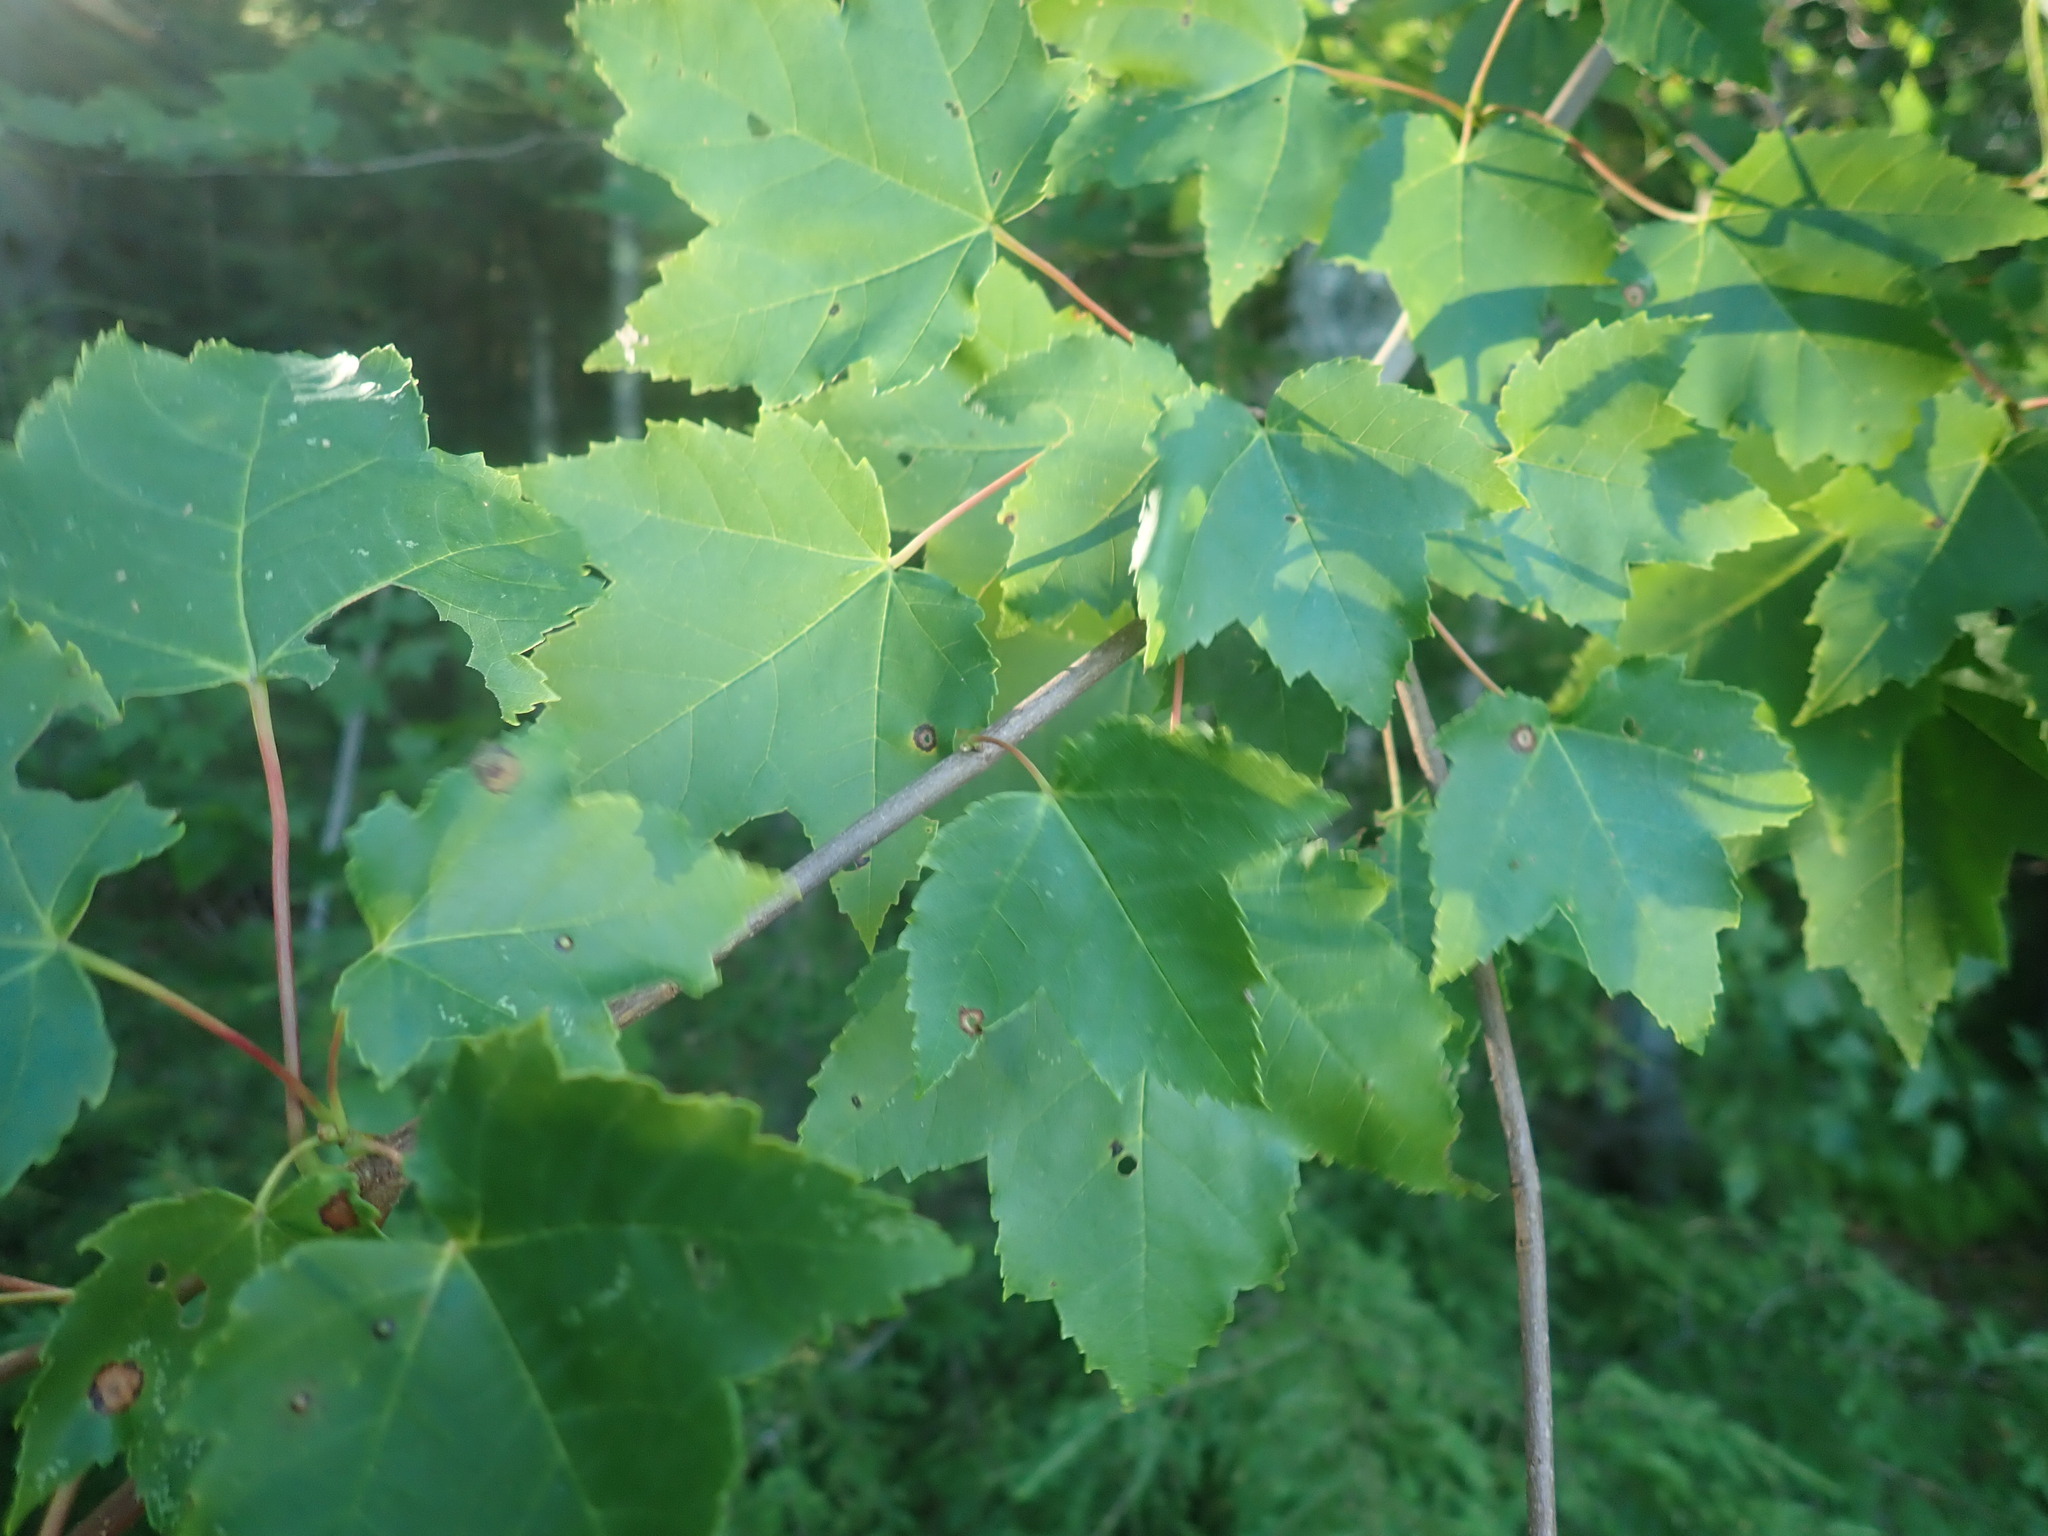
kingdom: Plantae
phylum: Tracheophyta
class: Magnoliopsida
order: Sapindales
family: Sapindaceae
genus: Acer
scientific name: Acer rubrum
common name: Red maple
